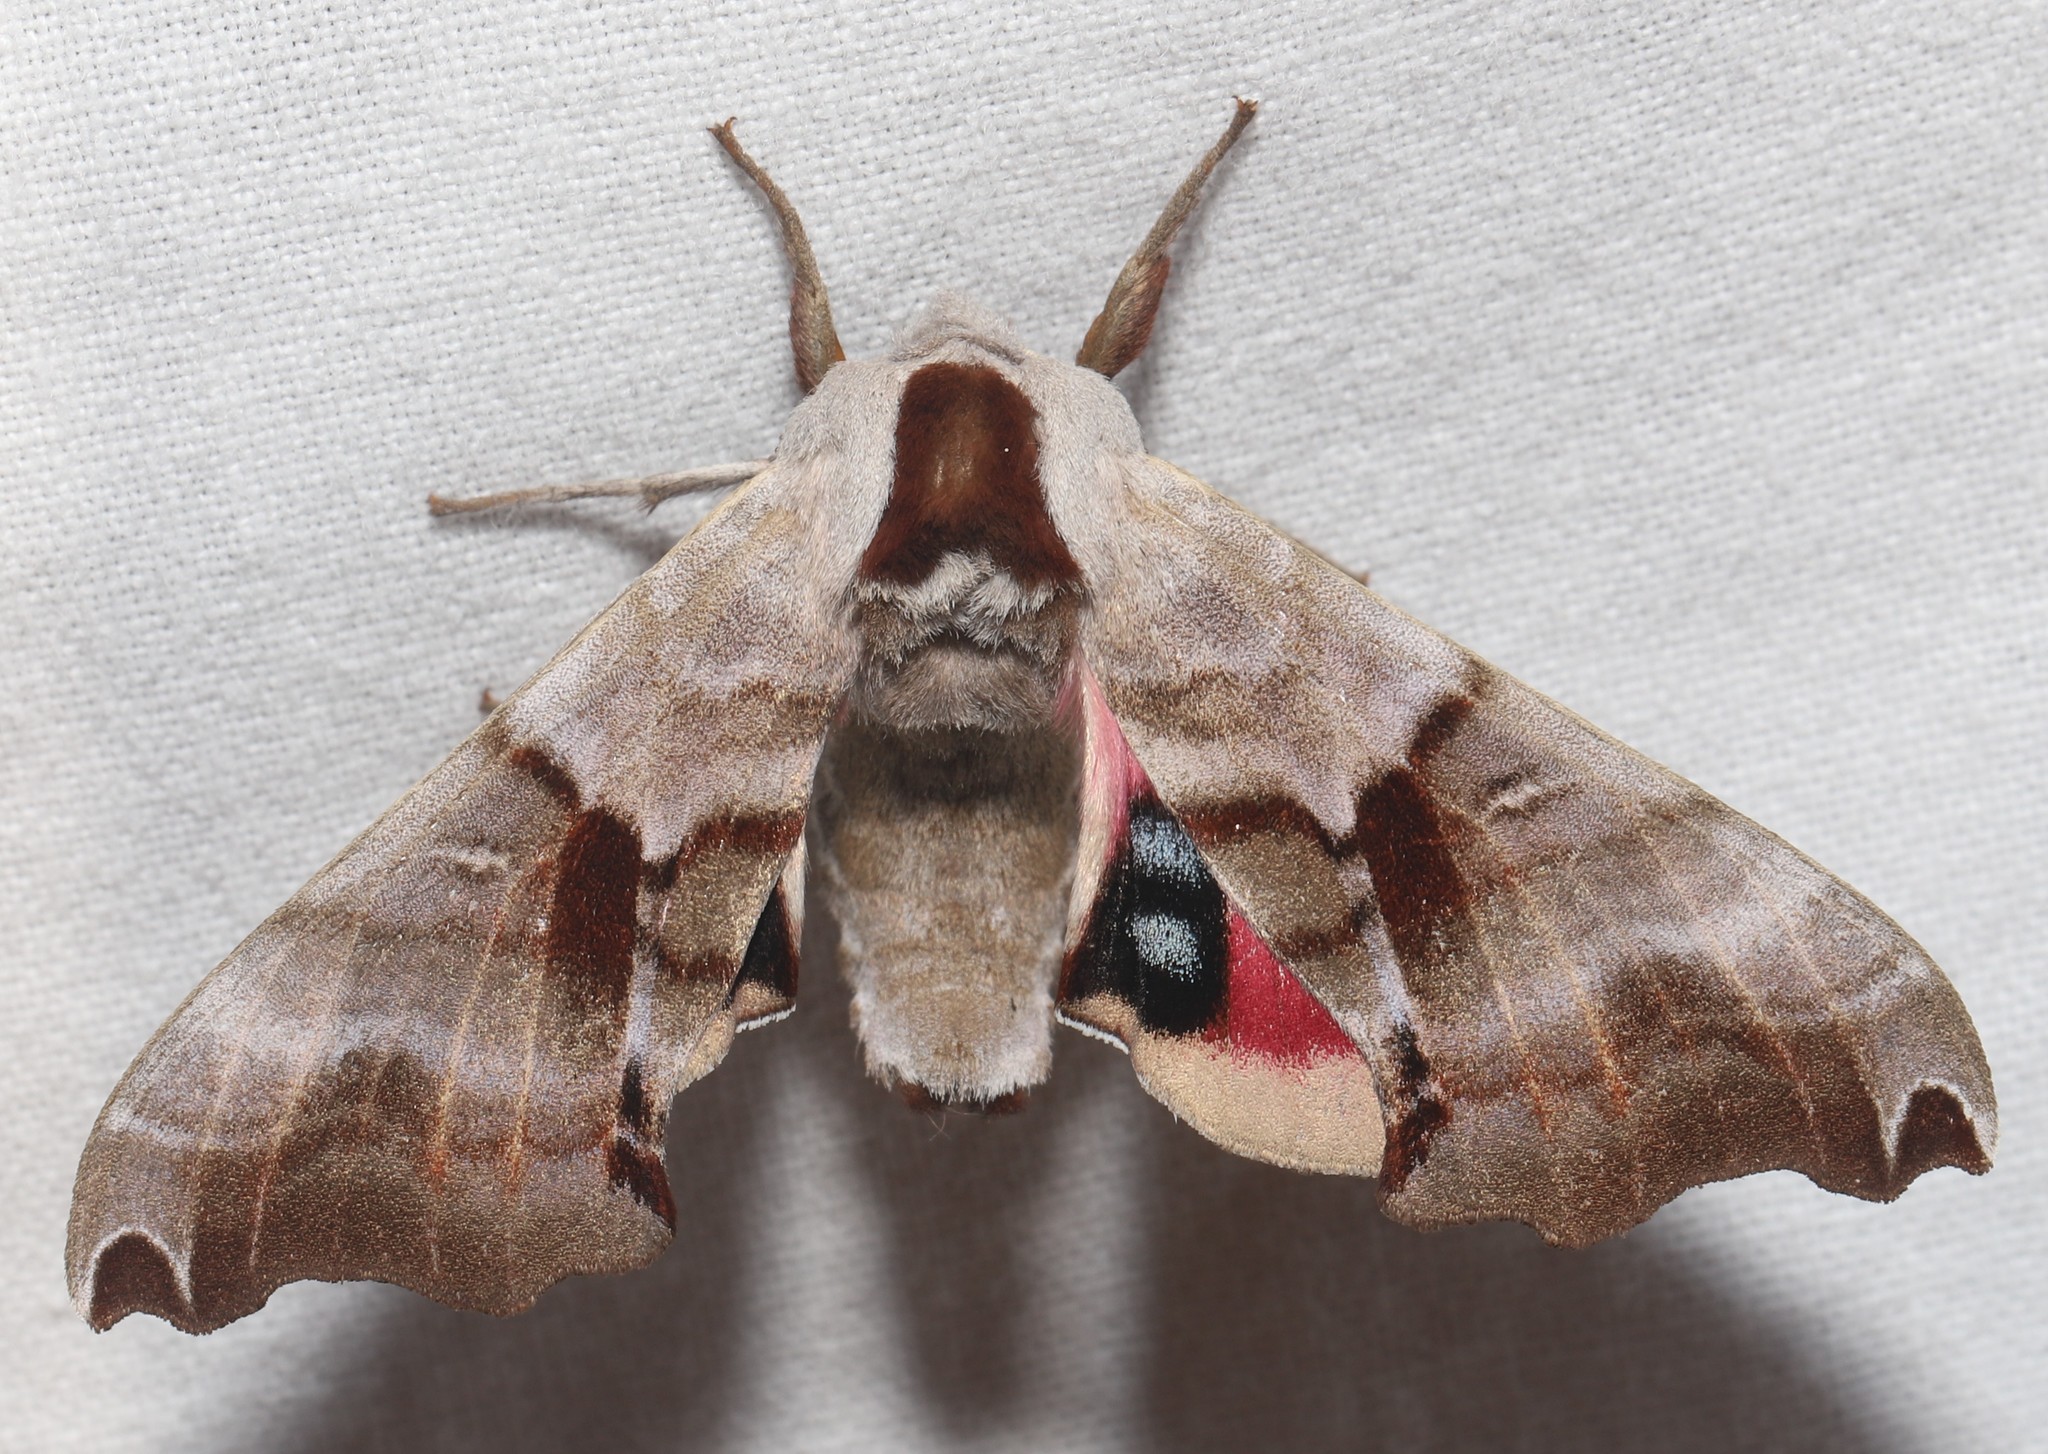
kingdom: Animalia
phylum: Arthropoda
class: Insecta
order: Lepidoptera
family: Sphingidae
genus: Smerinthus
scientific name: Smerinthus jamaicensis
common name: Twin spotted sphinx
